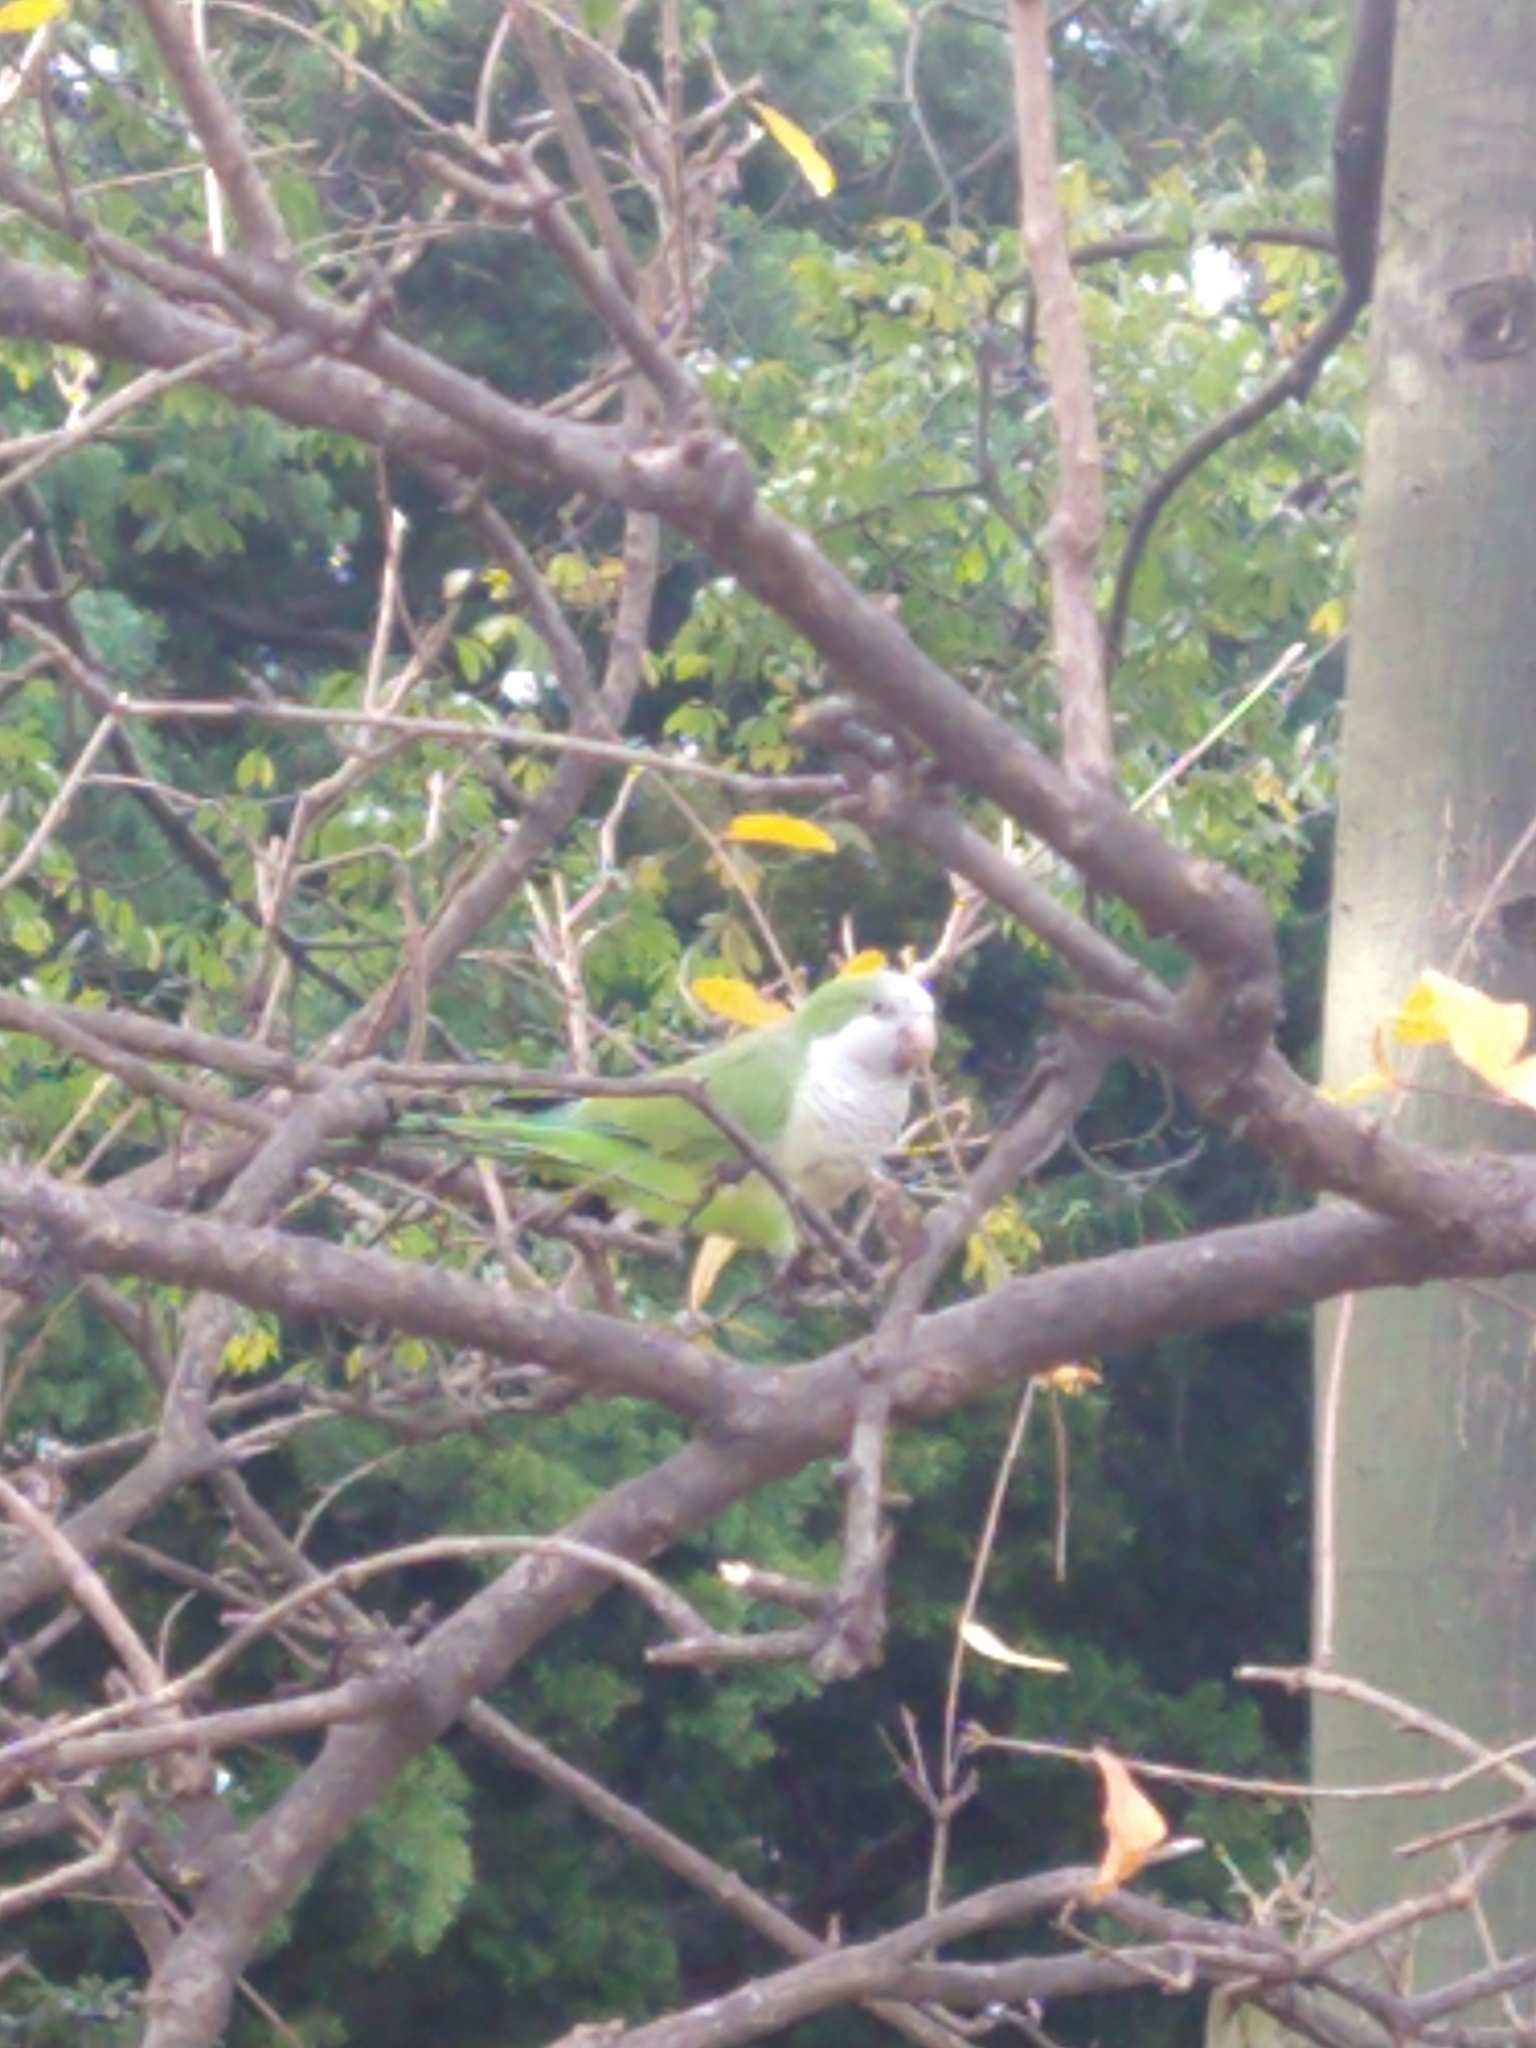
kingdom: Animalia
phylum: Chordata
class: Aves
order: Psittaciformes
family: Psittacidae
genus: Myiopsitta
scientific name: Myiopsitta monachus
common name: Monk parakeet
